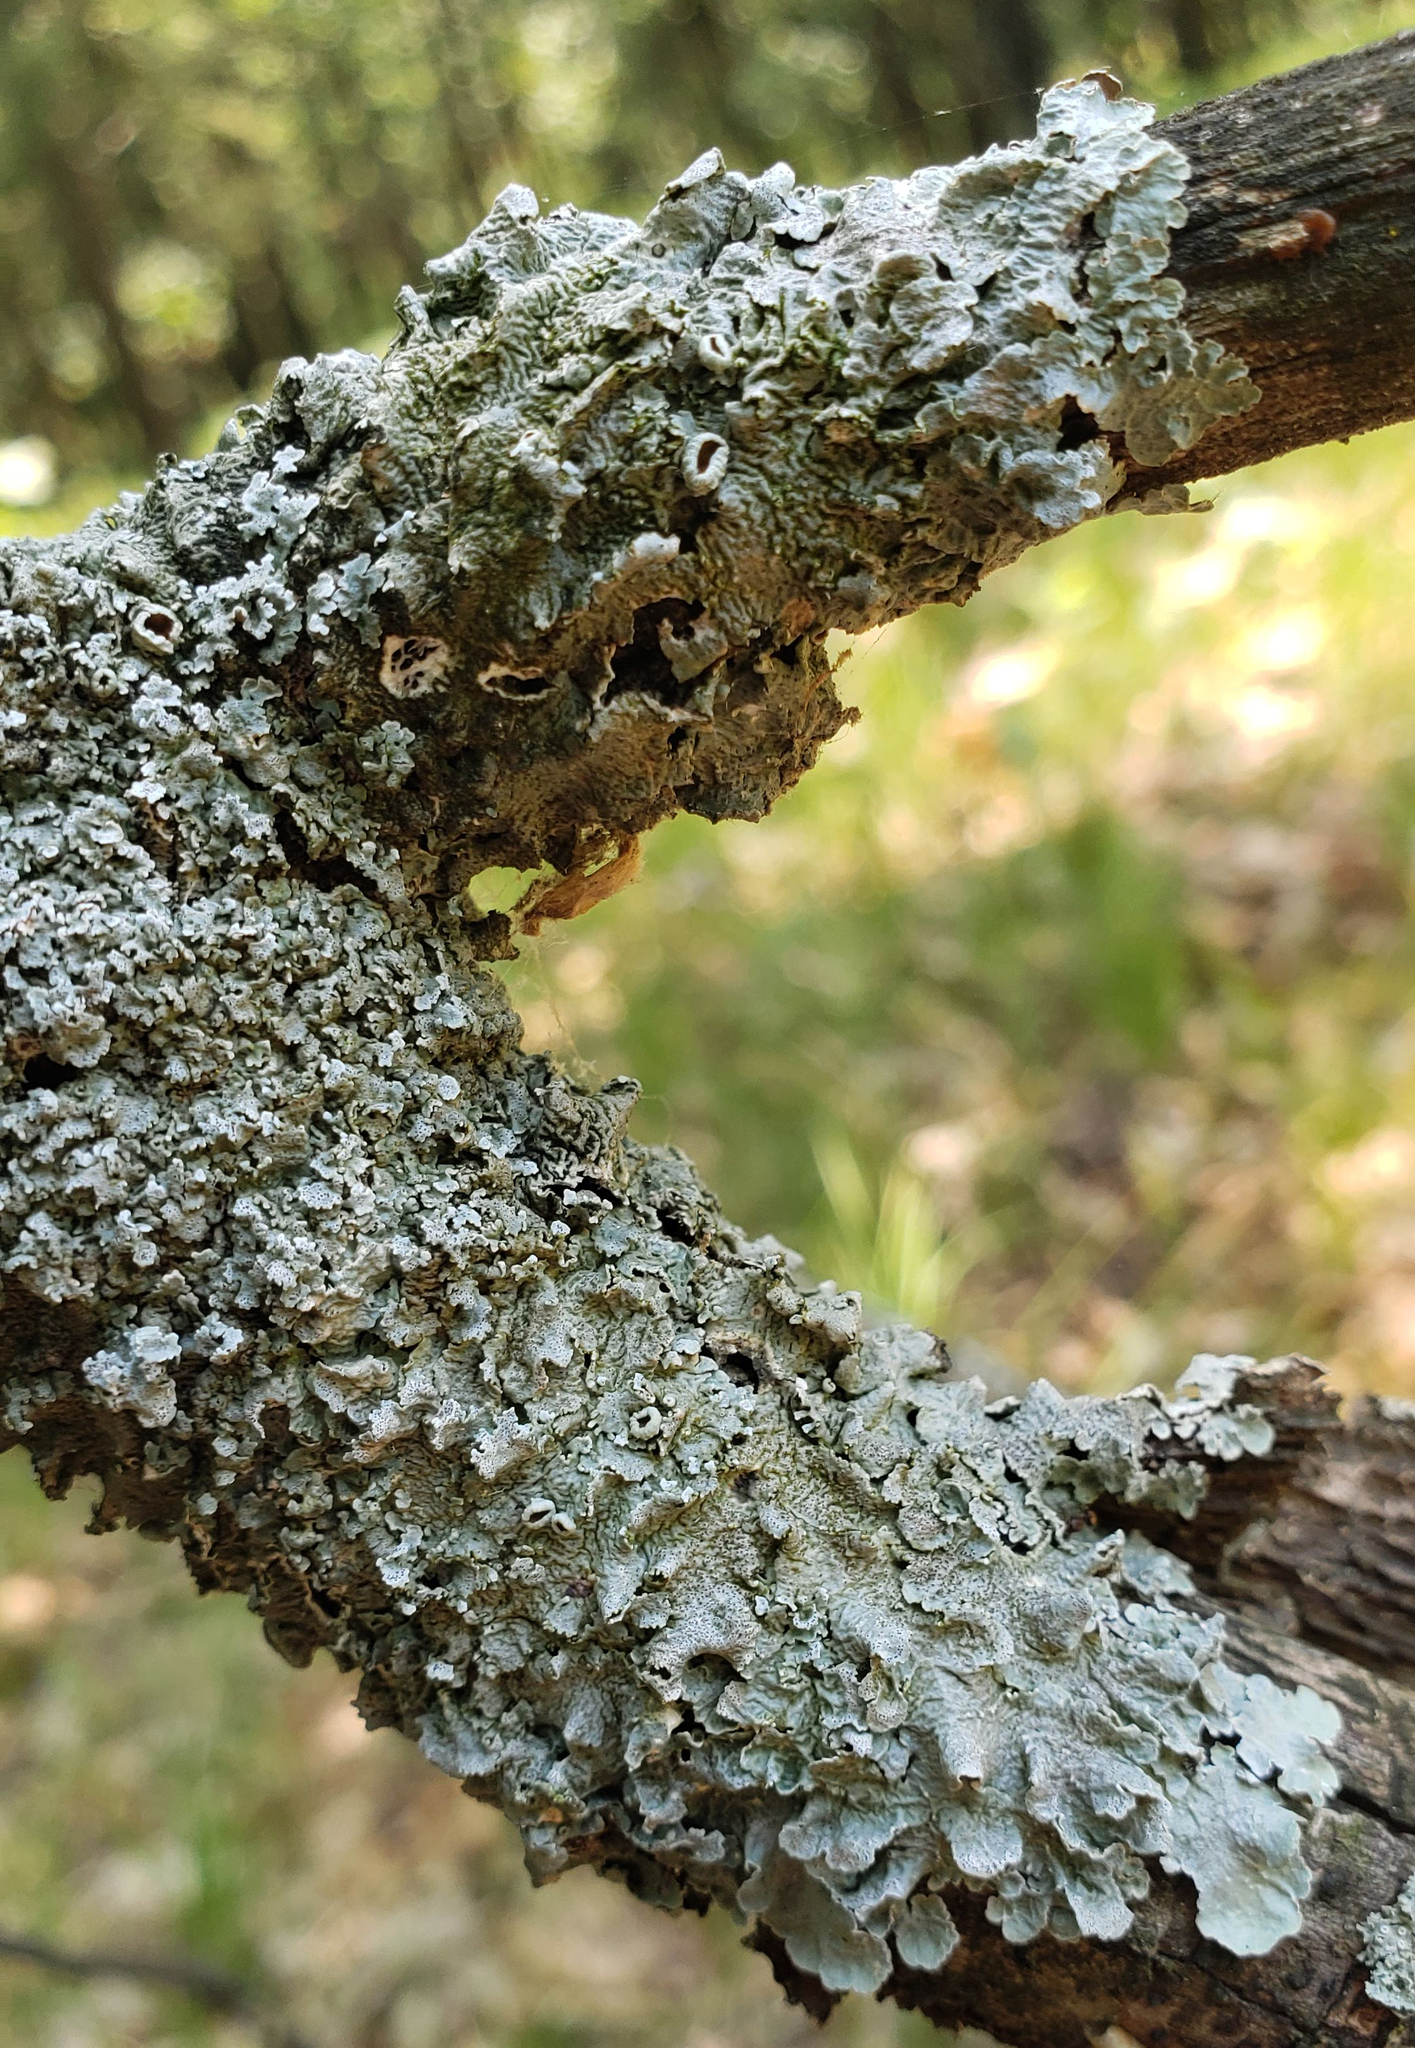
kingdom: Fungi
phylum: Ascomycota
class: Lecanoromycetes
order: Lecanorales
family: Parmeliaceae
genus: Punctelia
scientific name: Punctelia bolliana
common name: Eastern speckled shield lichen
